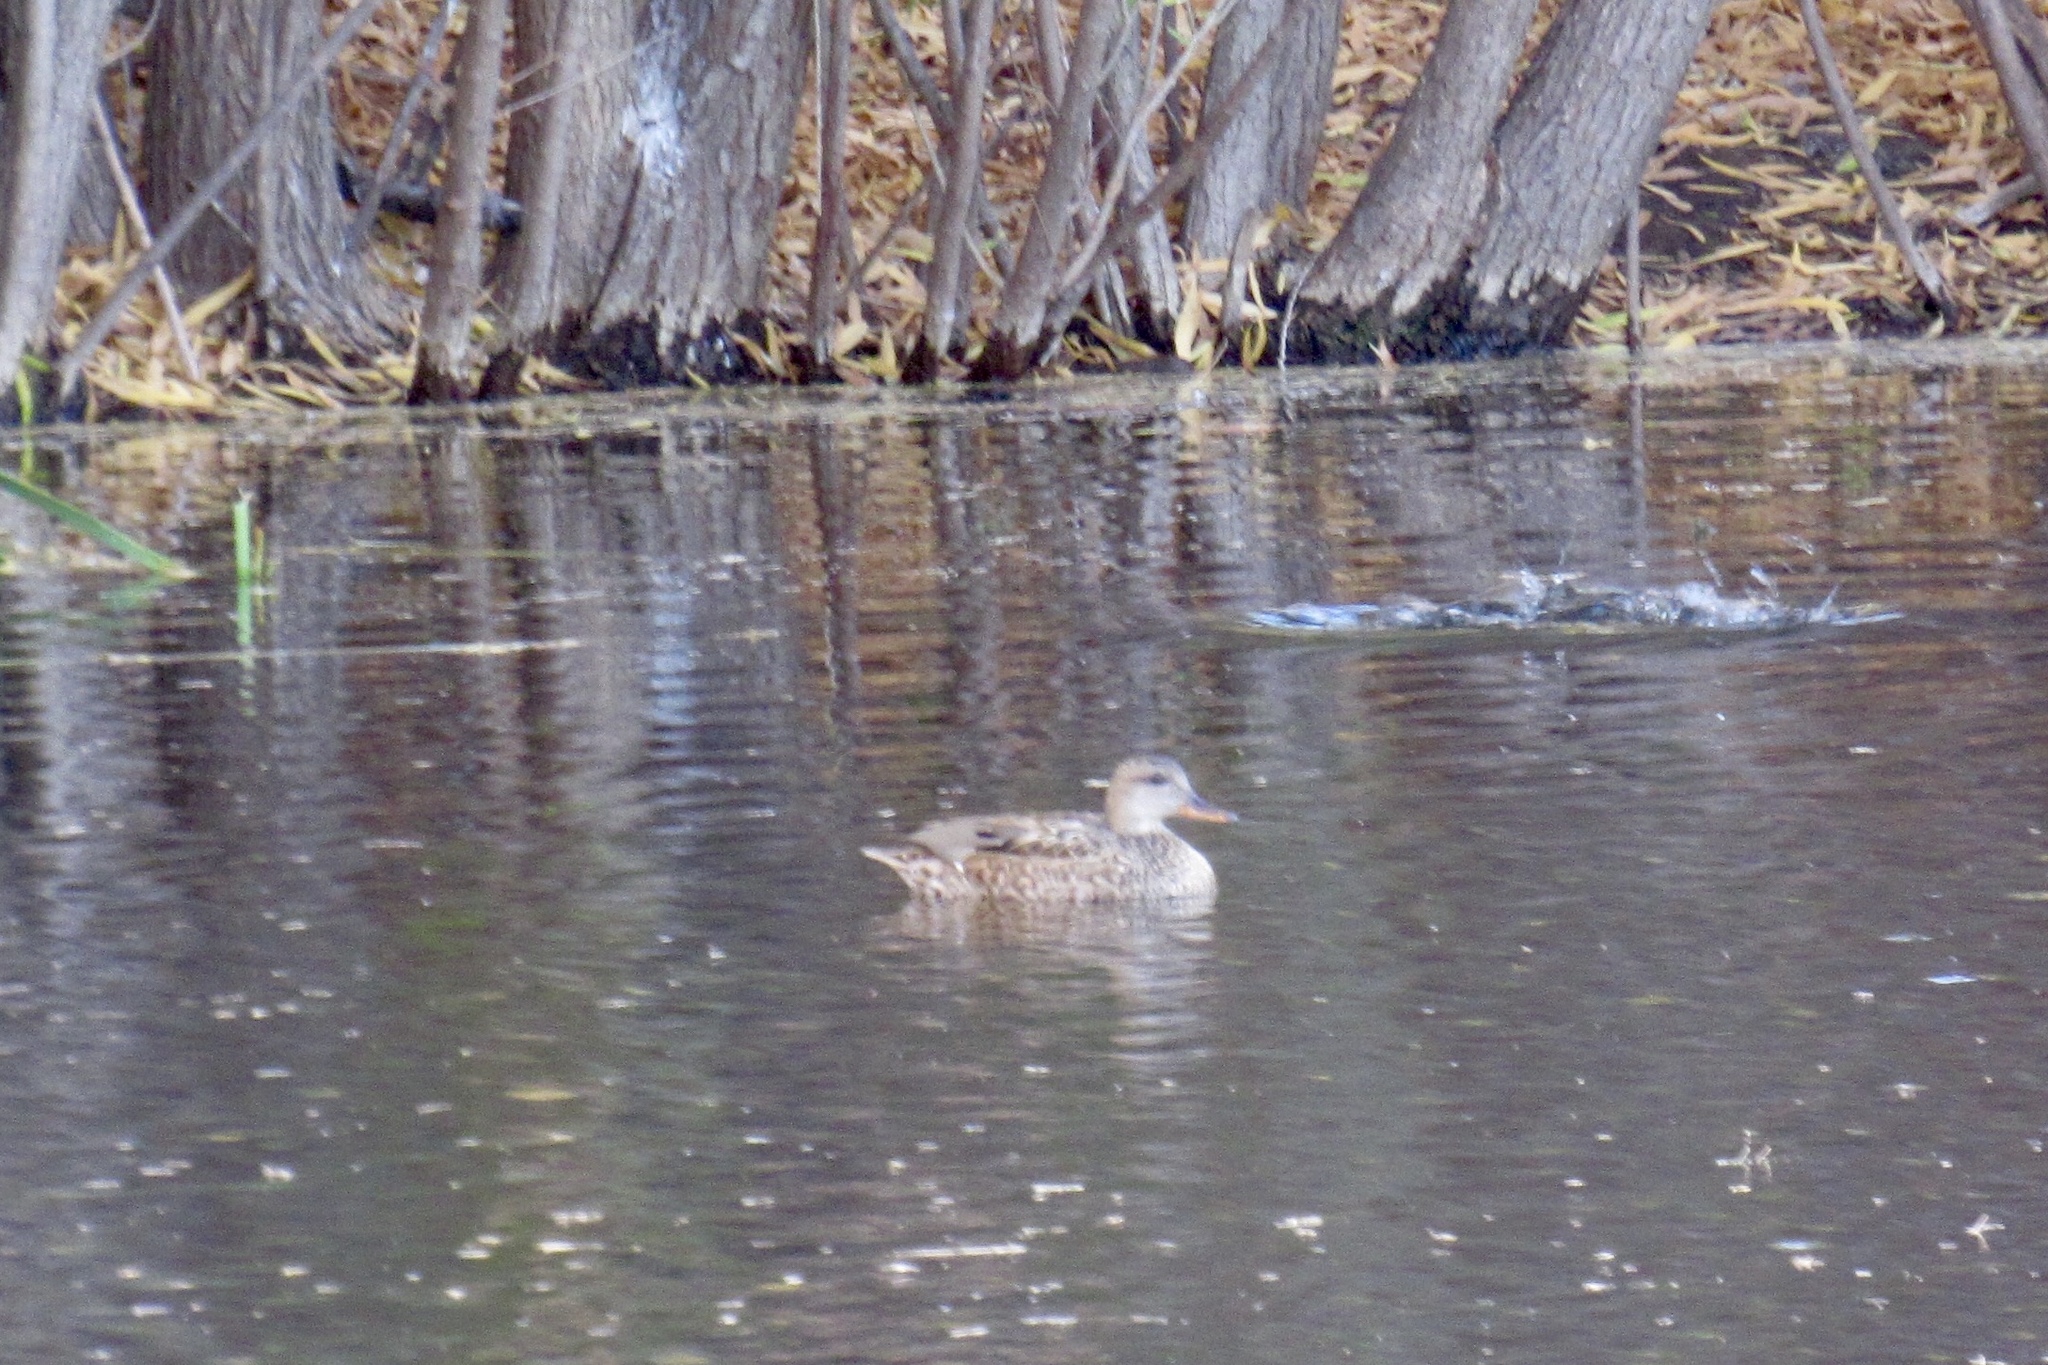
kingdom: Animalia
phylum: Chordata
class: Aves
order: Anseriformes
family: Anatidae
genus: Mareca
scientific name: Mareca strepera
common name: Gadwall
